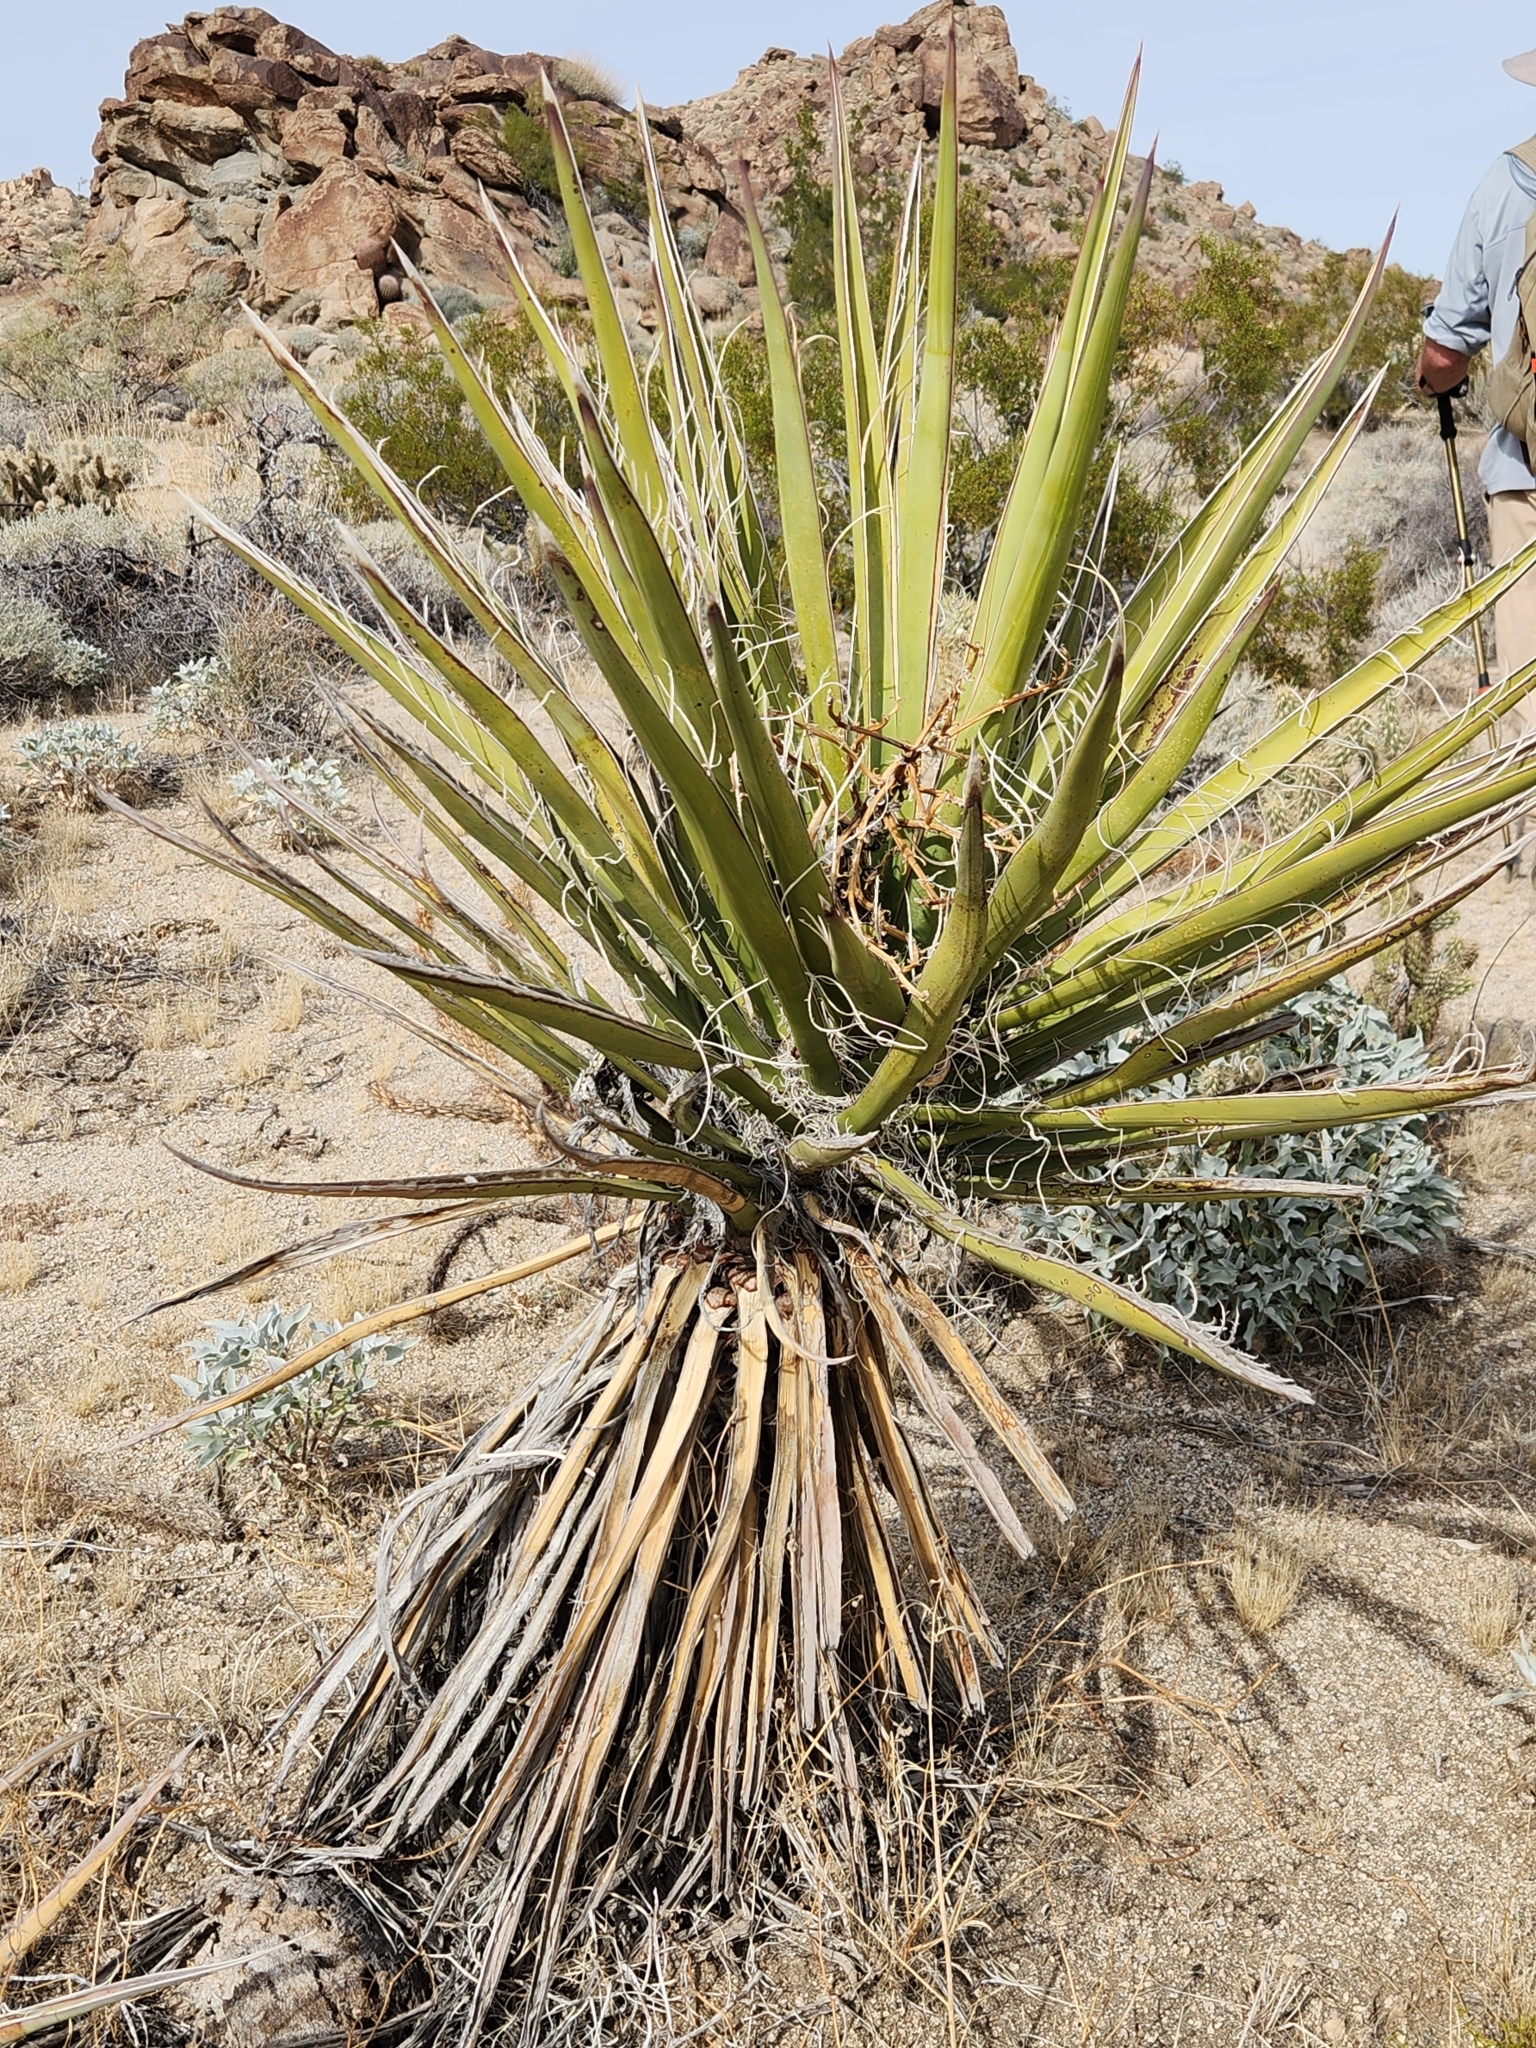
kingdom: Plantae
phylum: Tracheophyta
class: Liliopsida
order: Asparagales
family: Asparagaceae
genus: Yucca
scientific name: Yucca schidigera
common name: Mojave yucca
